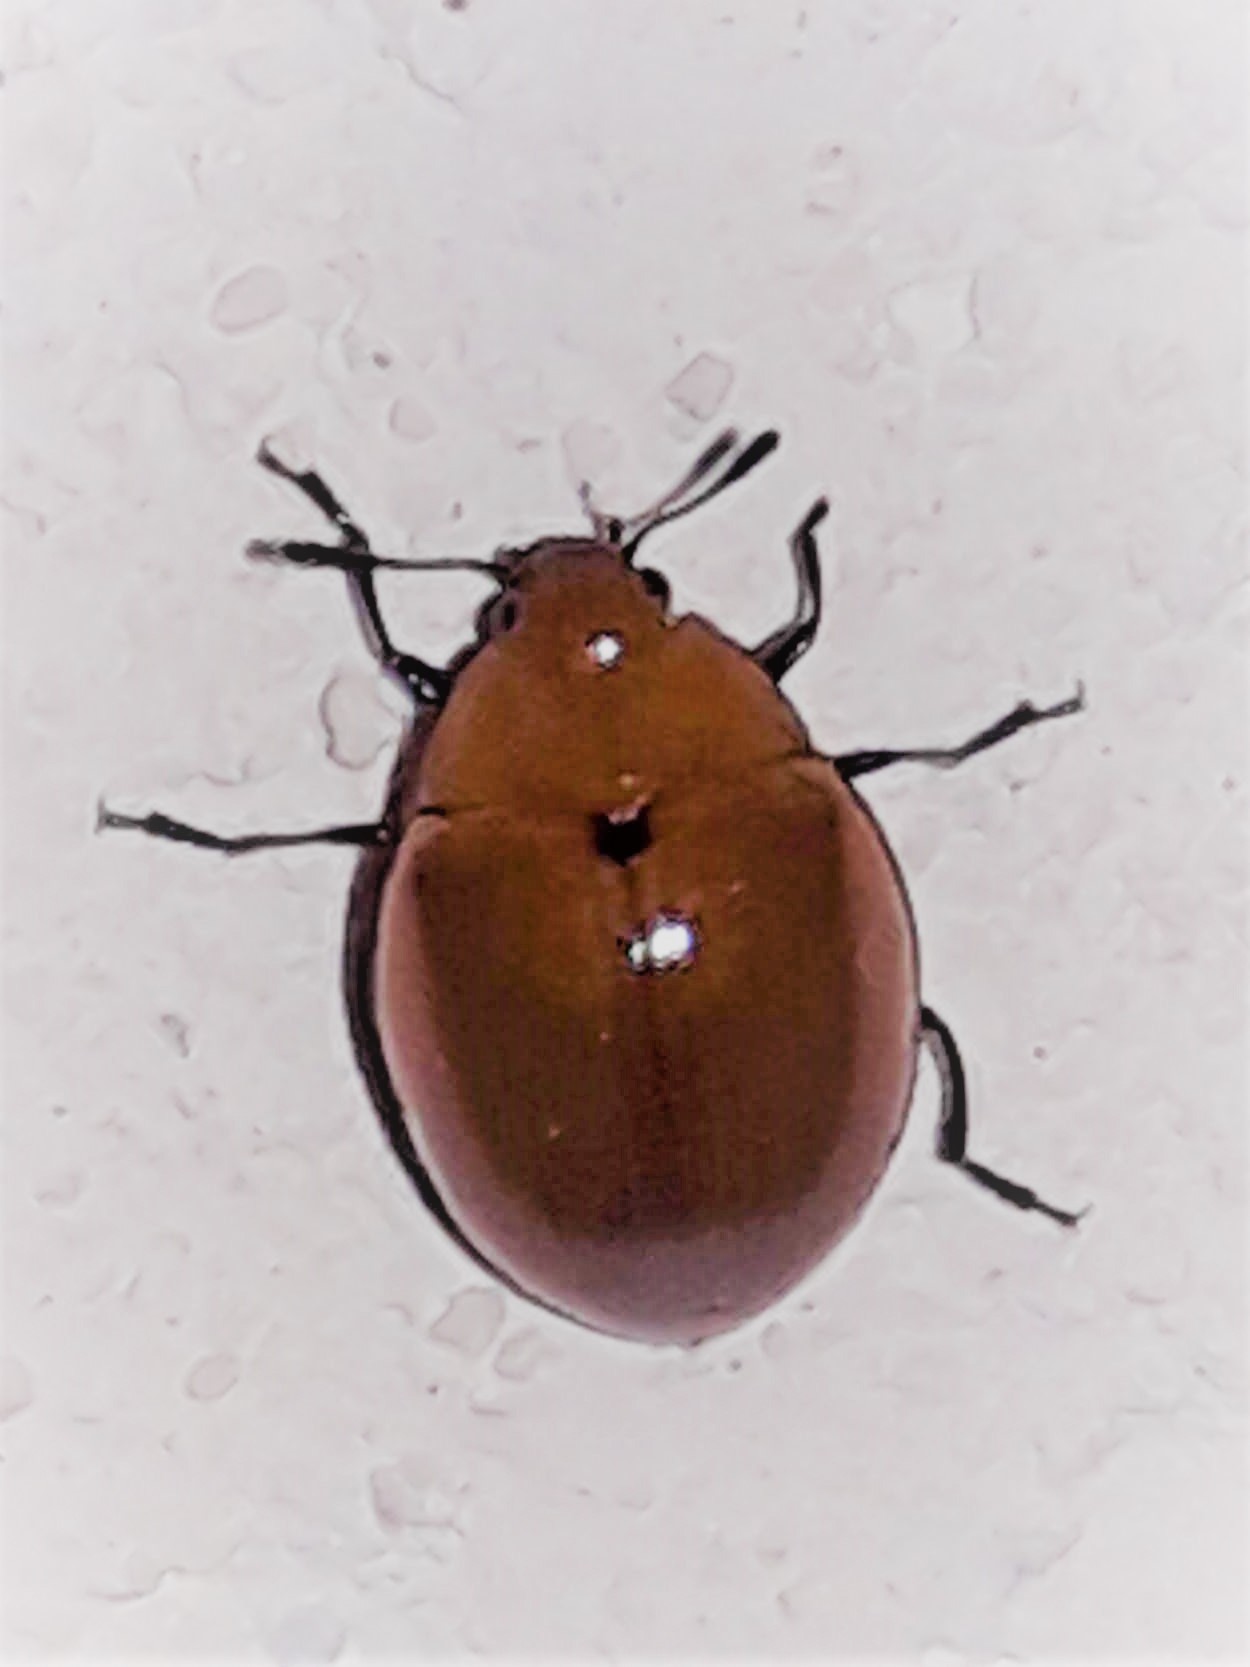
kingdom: Animalia
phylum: Arthropoda
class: Insecta
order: Coleoptera
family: Erotylidae
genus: Aegithus
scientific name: Aegithus
